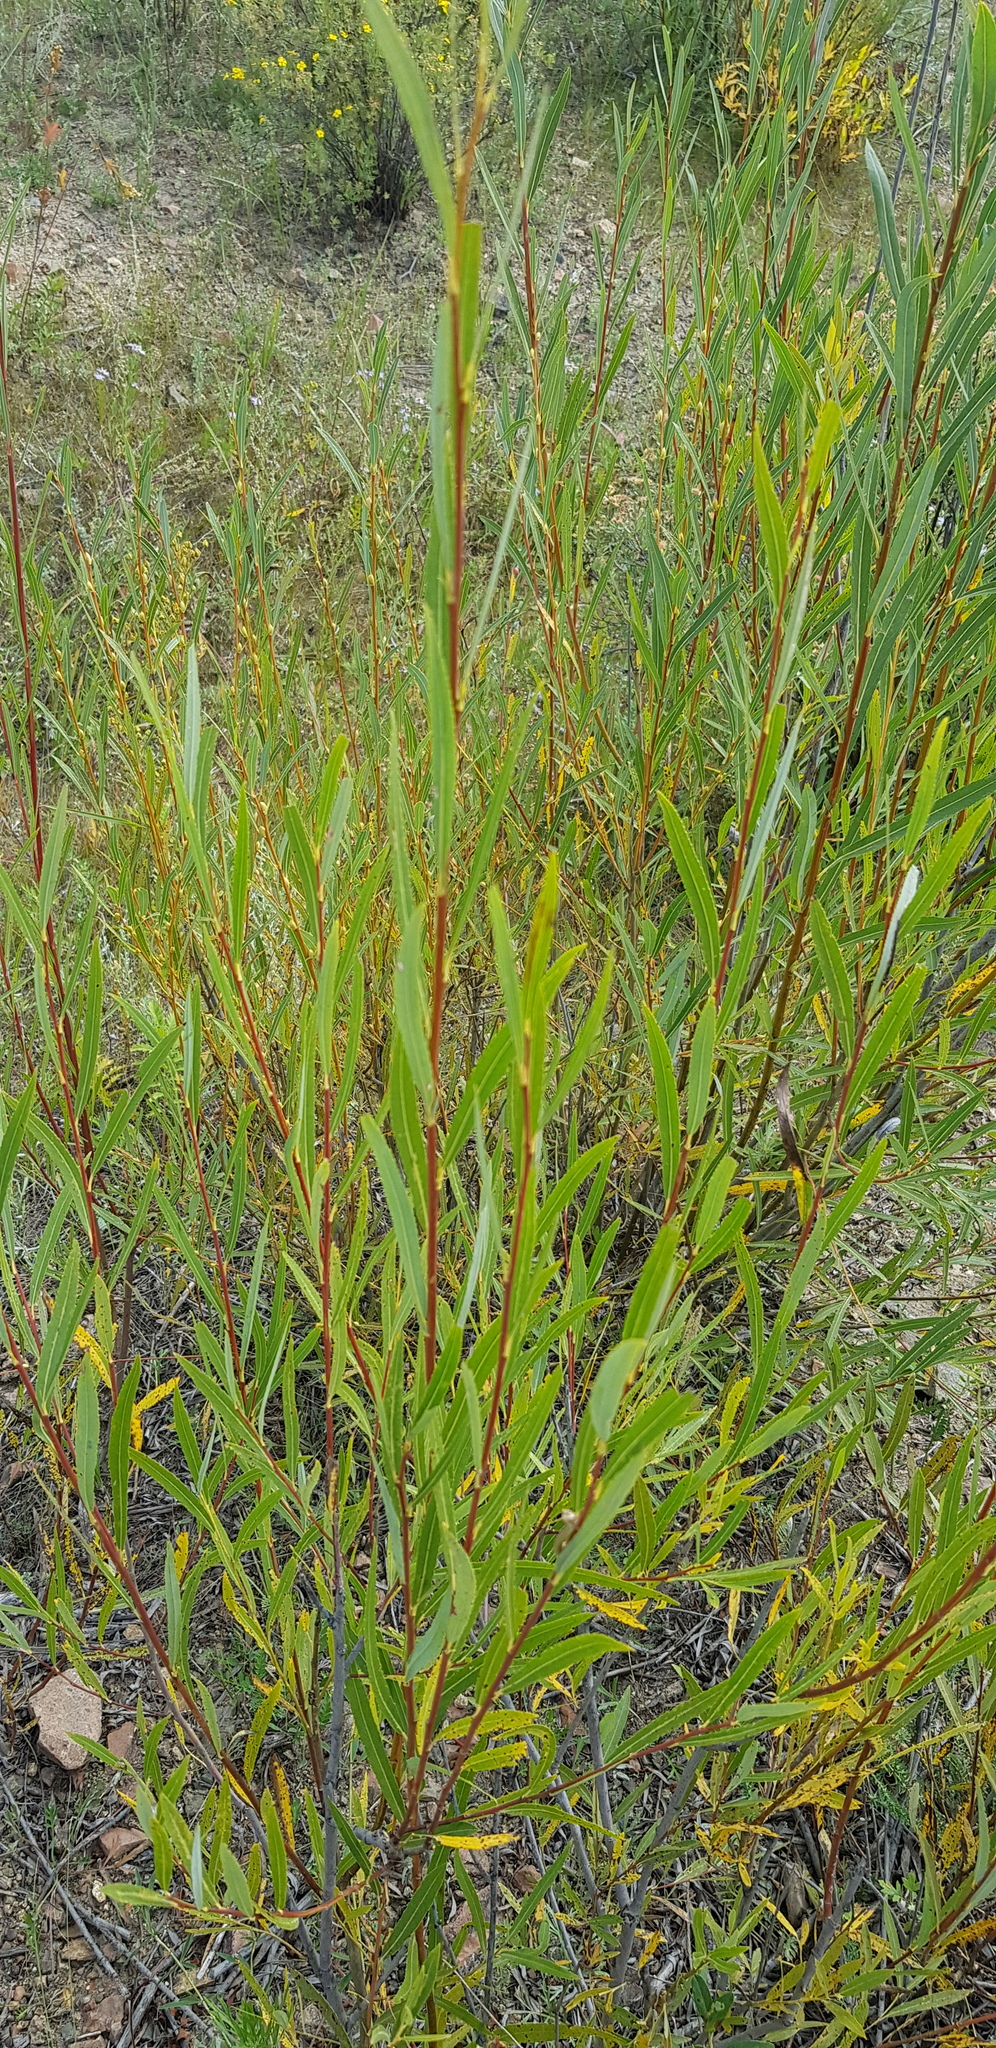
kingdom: Plantae
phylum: Tracheophyta
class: Magnoliopsida
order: Malpighiales
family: Salicaceae
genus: Salix
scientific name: Salix rorida
